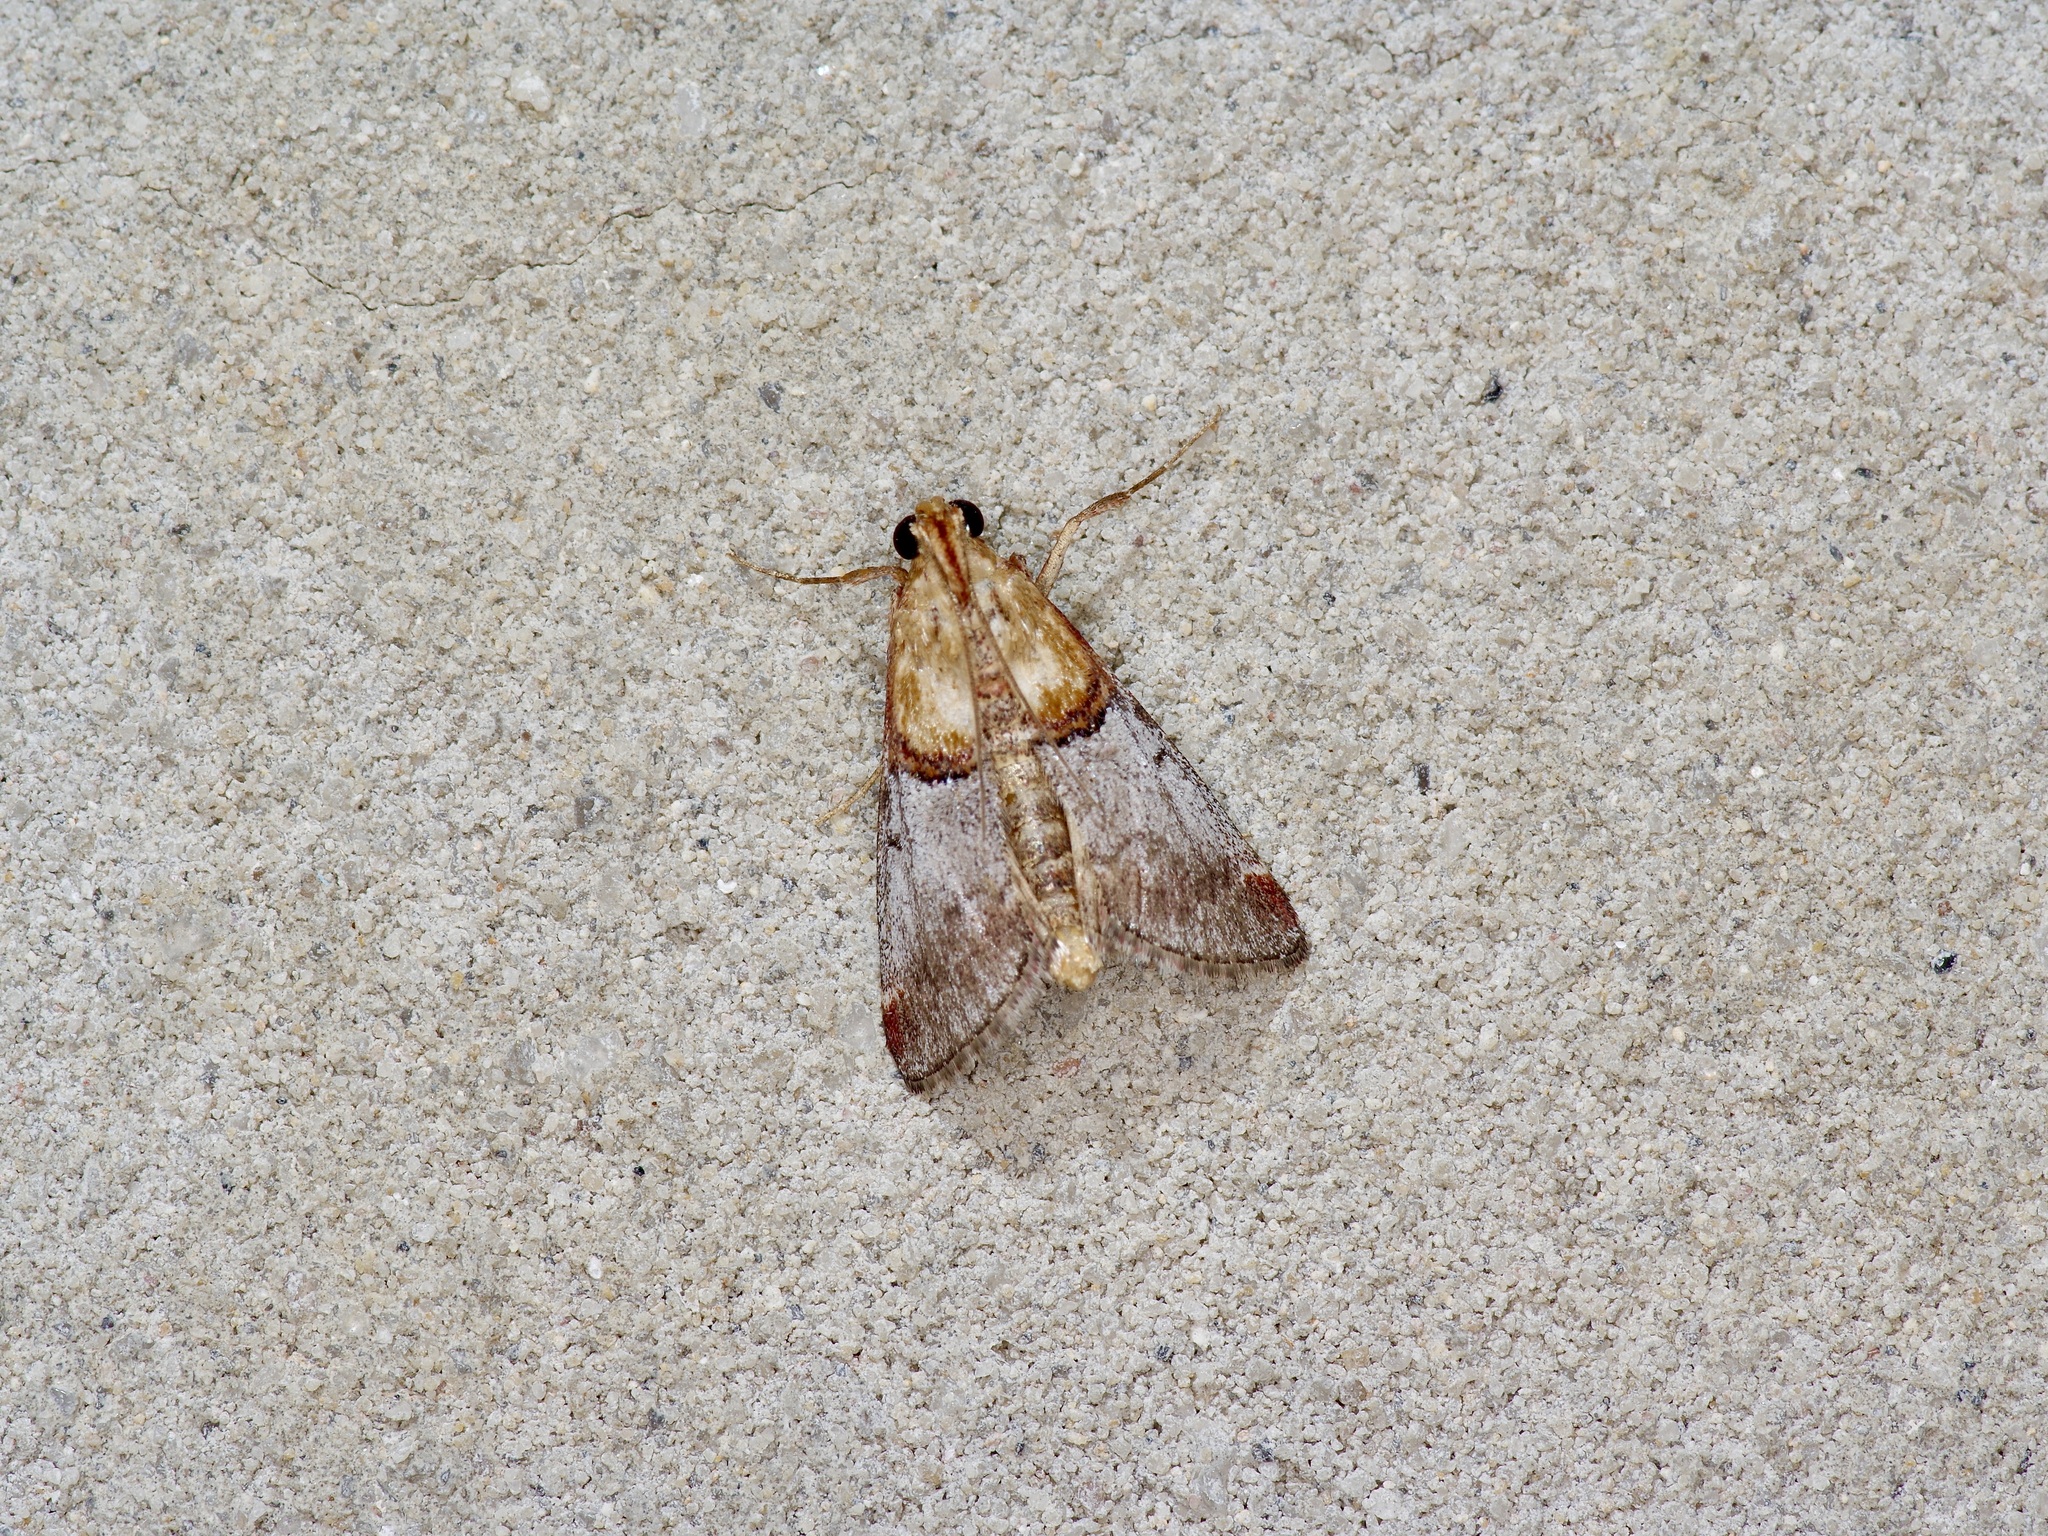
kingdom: Animalia
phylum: Arthropoda
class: Insecta
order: Lepidoptera
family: Pyralidae
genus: Cacozelia
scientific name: Cacozelia basiochrealis
